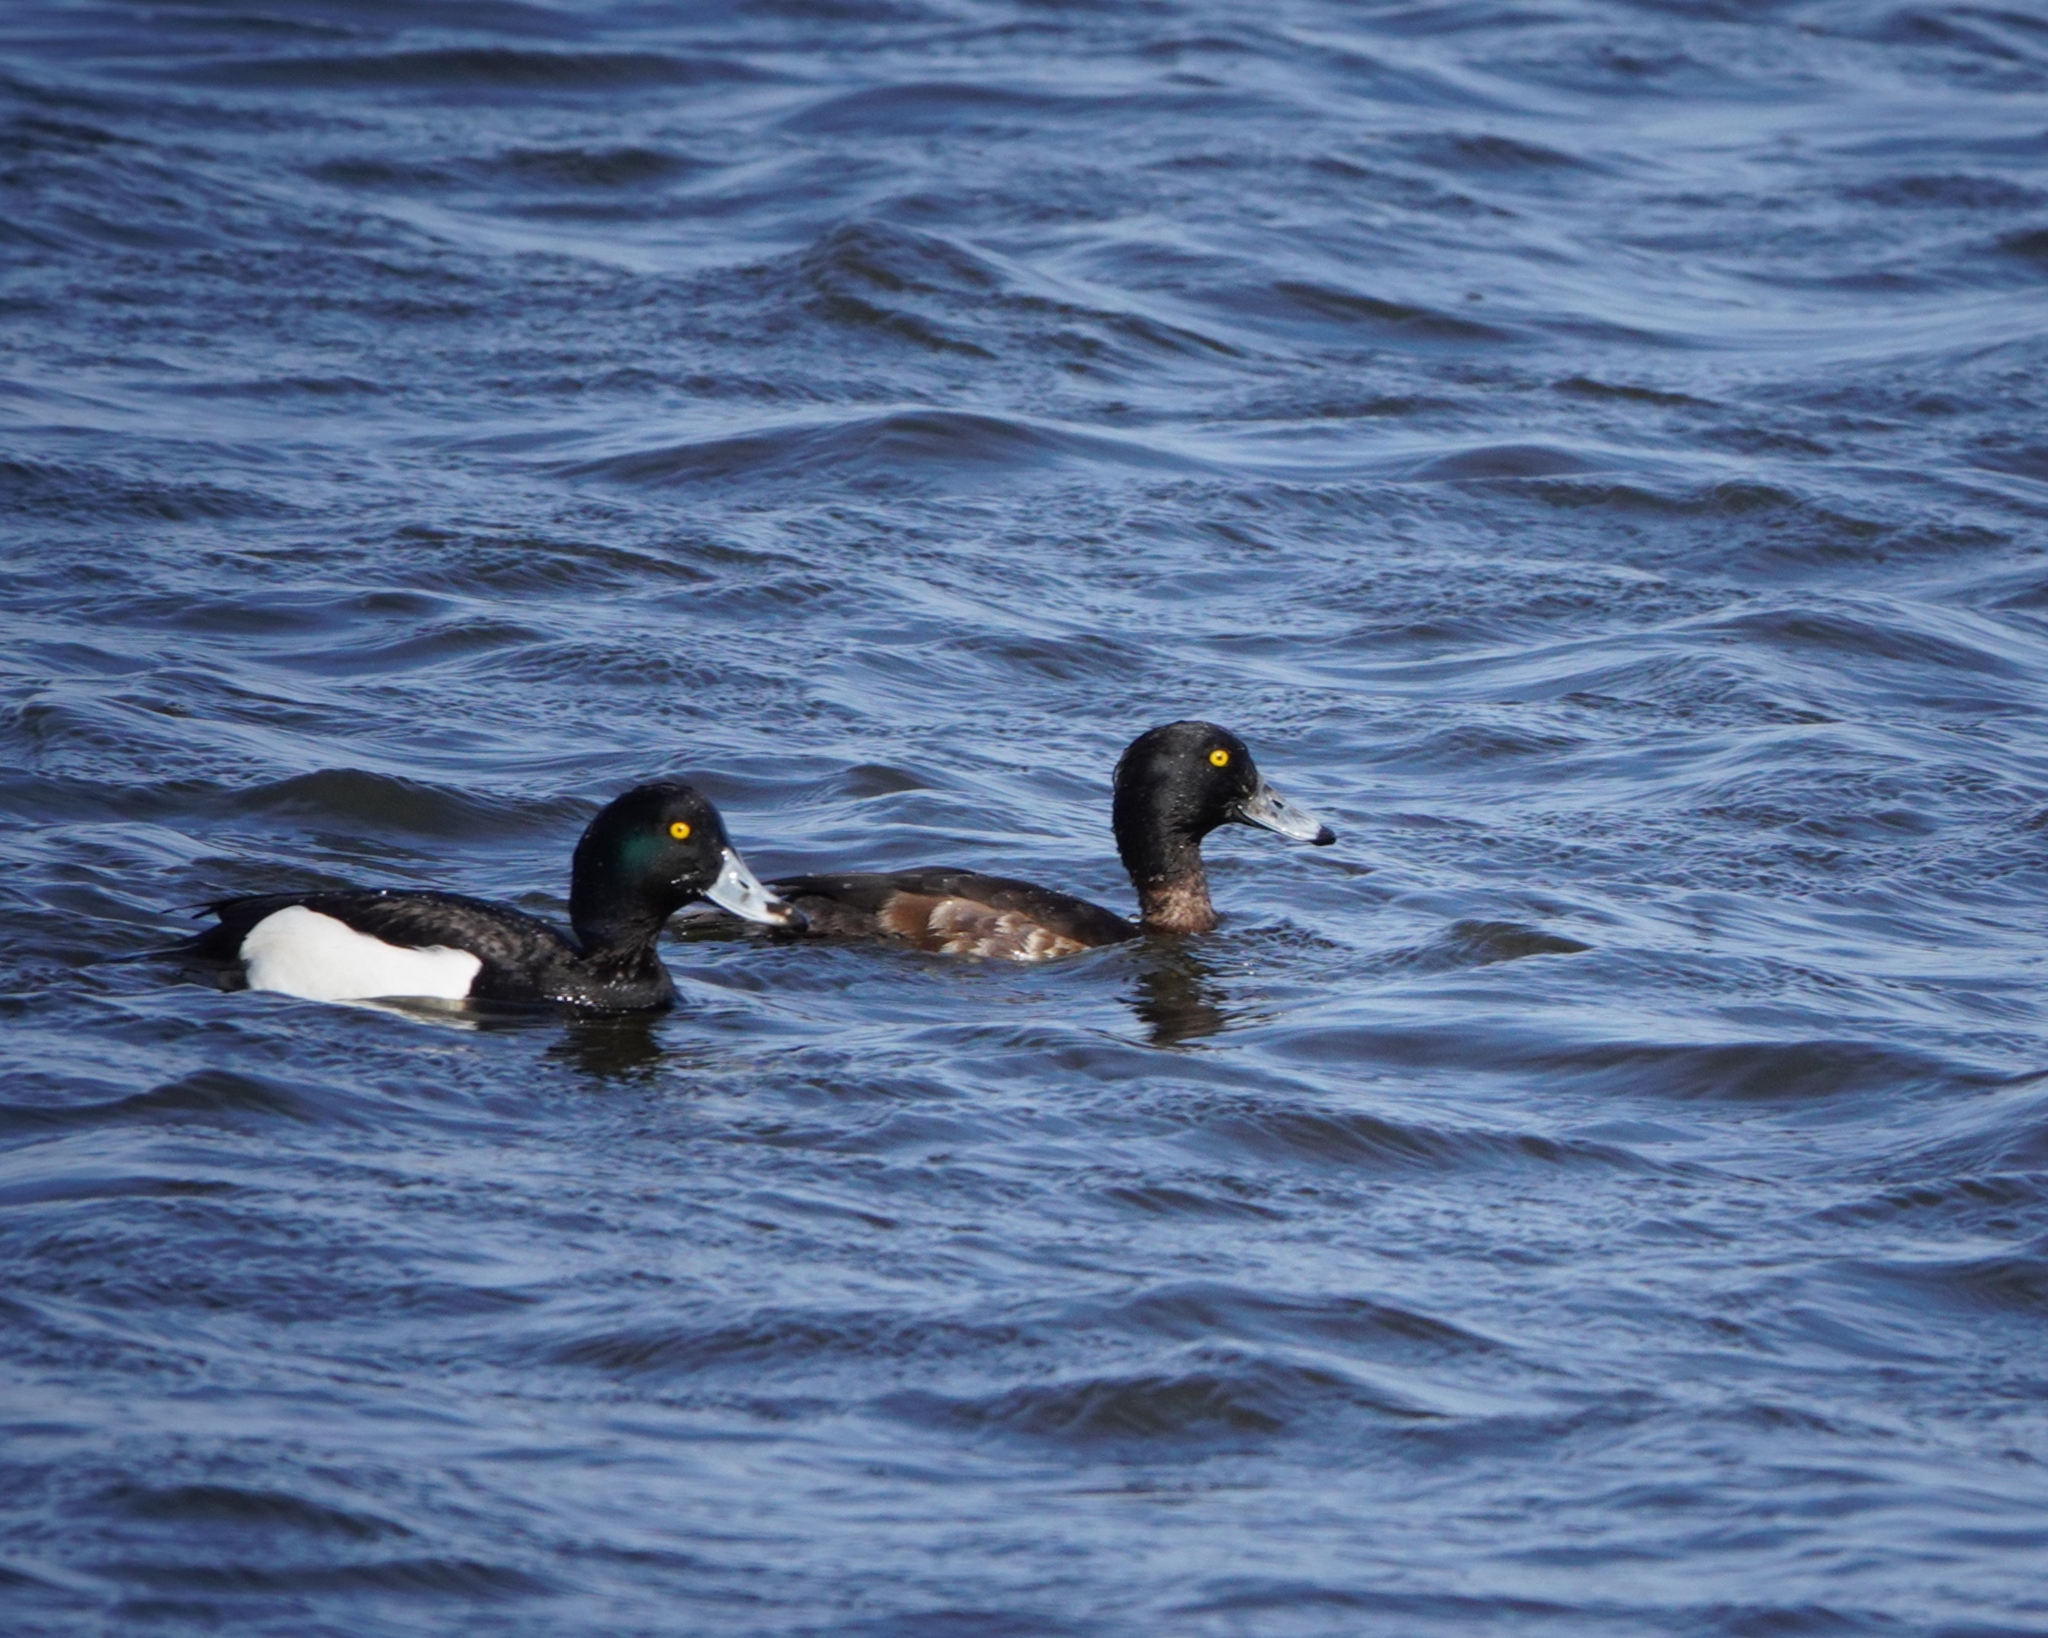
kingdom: Animalia
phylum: Chordata
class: Aves
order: Anseriformes
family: Anatidae
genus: Aythya
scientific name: Aythya fuligula
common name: Tufted duck
